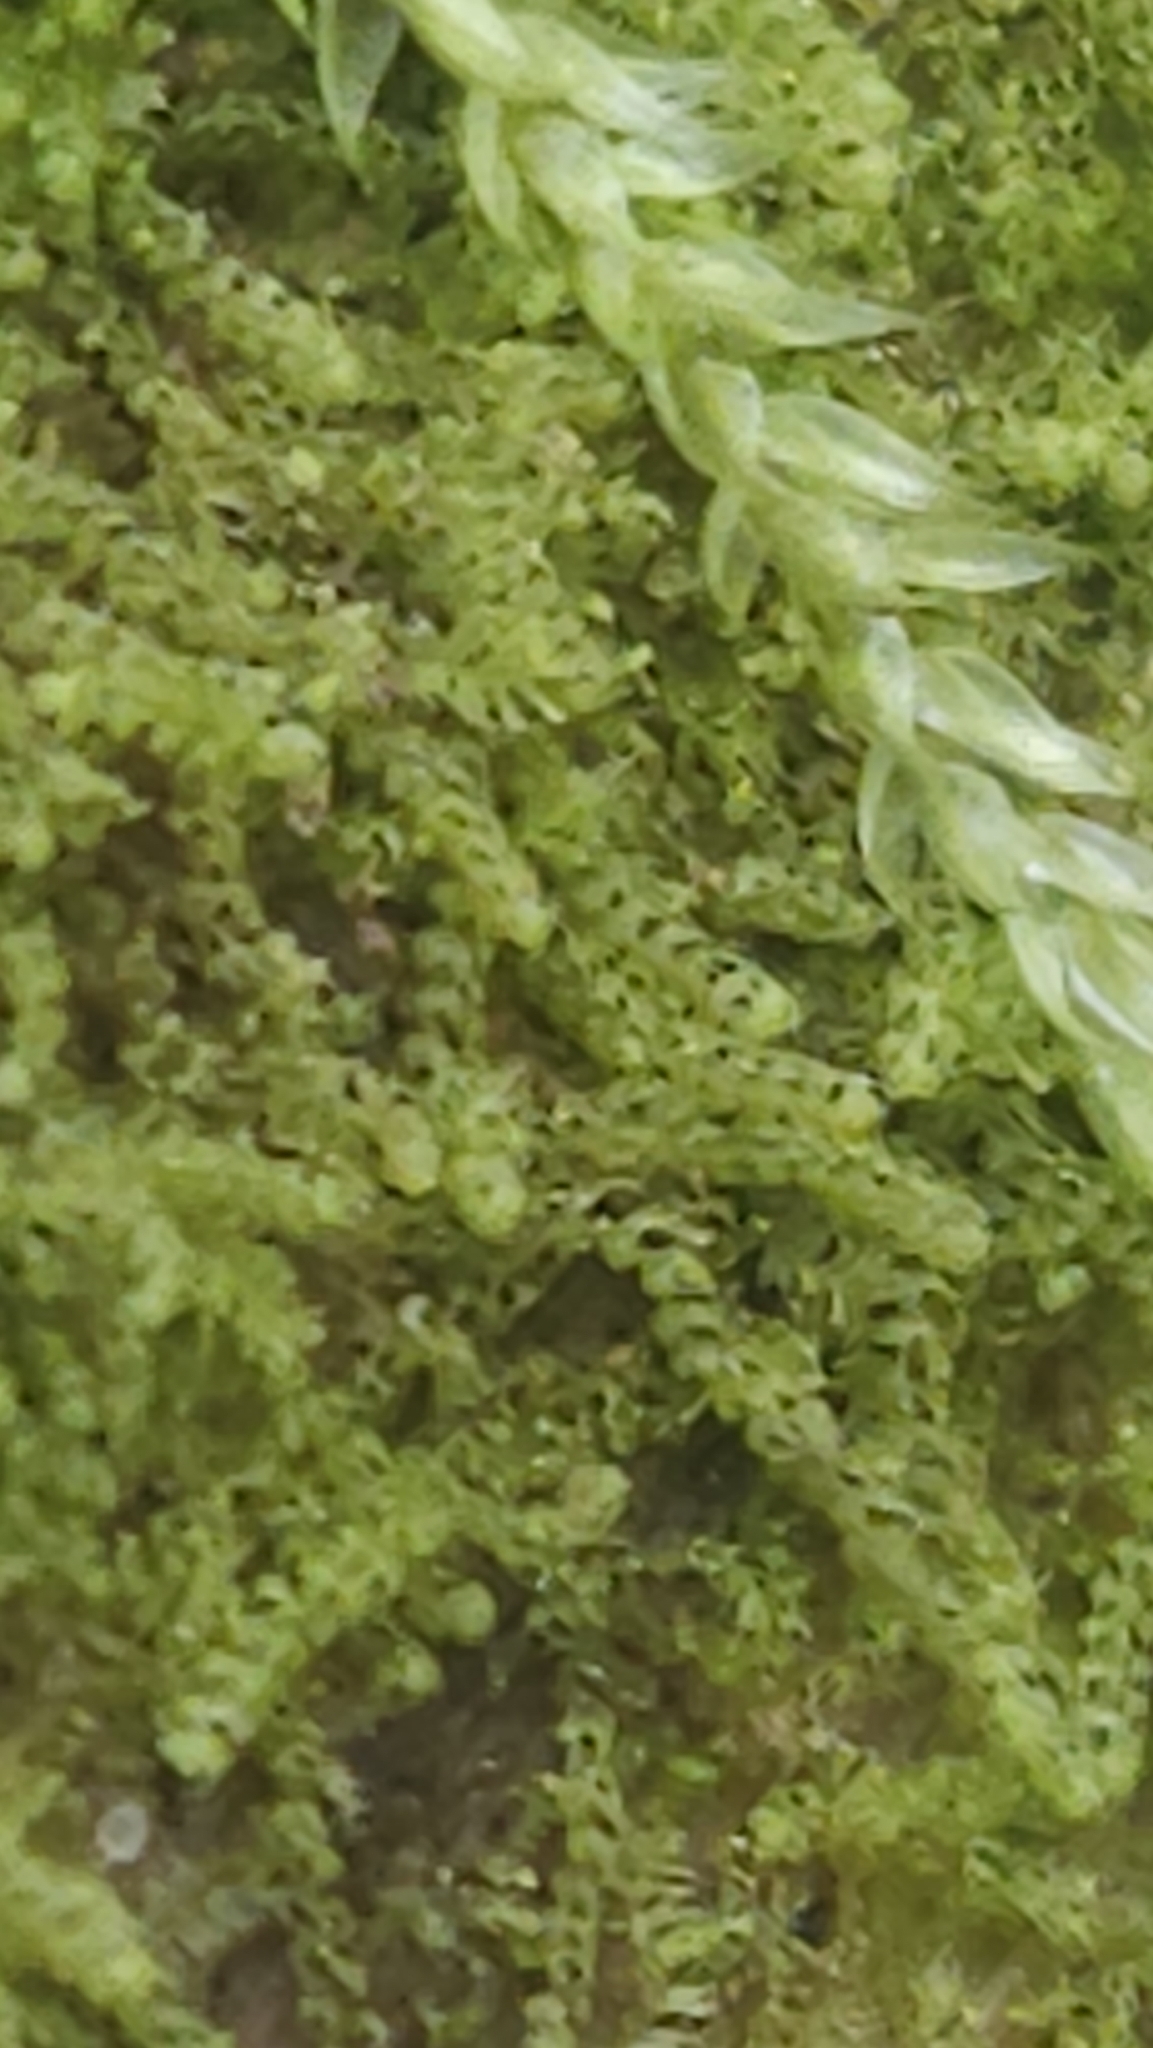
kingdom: Plantae
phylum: Marchantiophyta
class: Jungermanniopsida
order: Jungermanniales
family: Cephaloziaceae
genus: Nowellia
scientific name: Nowellia curvifolia
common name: Wood rustwort
